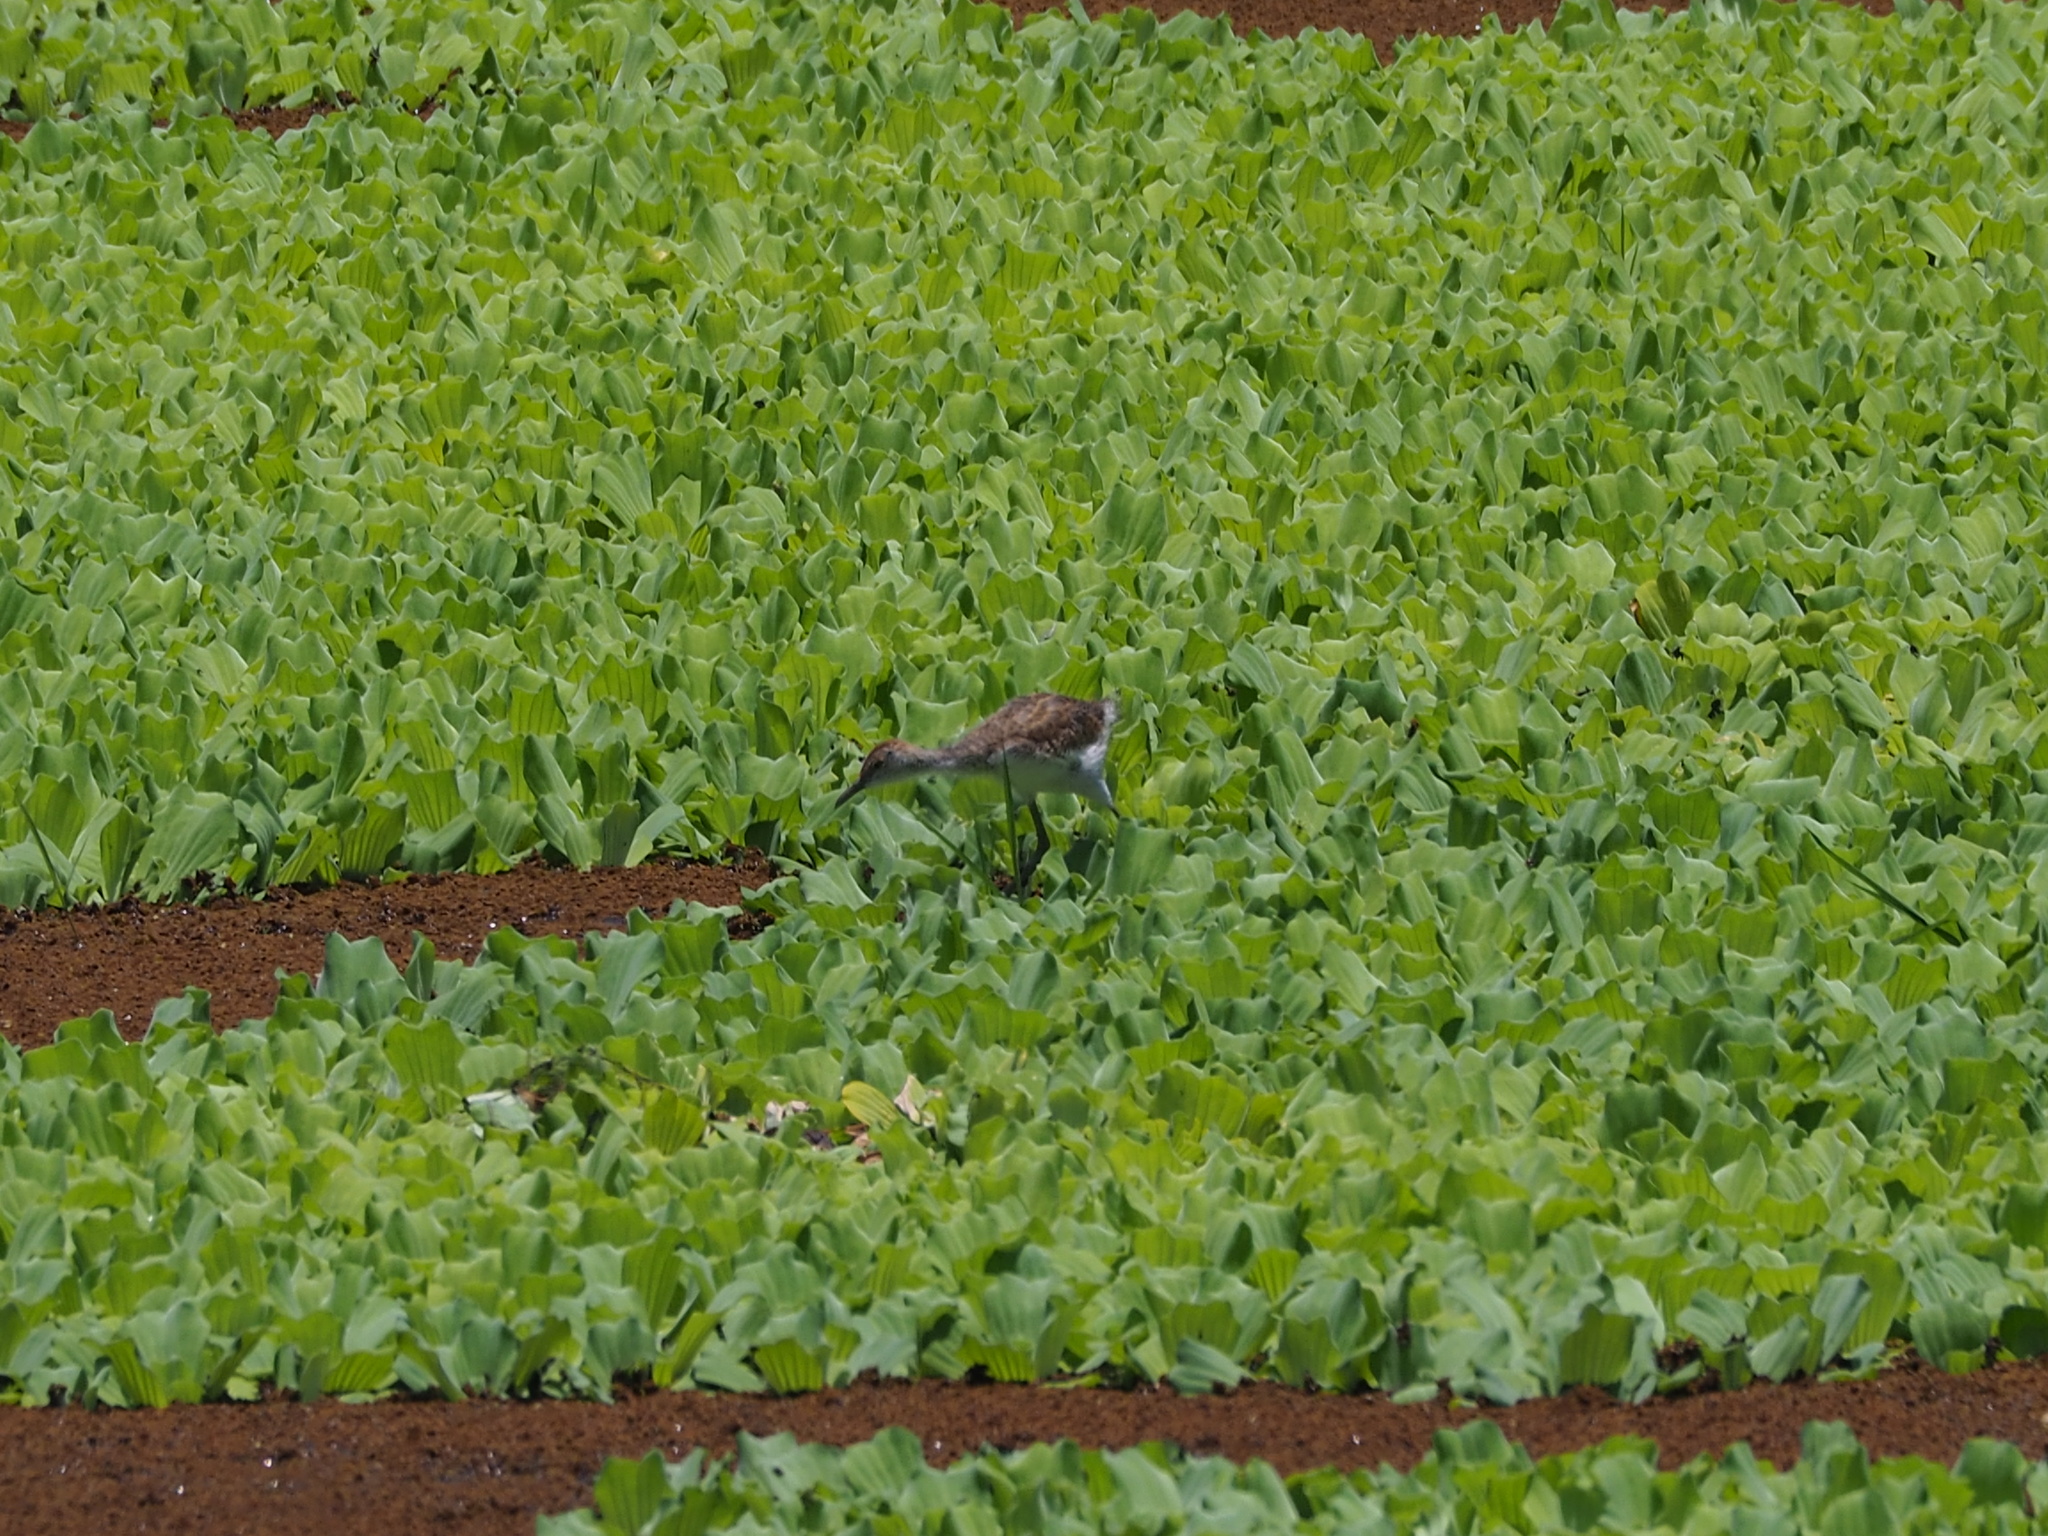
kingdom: Animalia
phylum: Chordata
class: Aves
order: Charadriiformes
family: Jacanidae
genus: Hydrophasianus
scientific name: Hydrophasianus chirurgus
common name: Pheasant-tailed jacana
